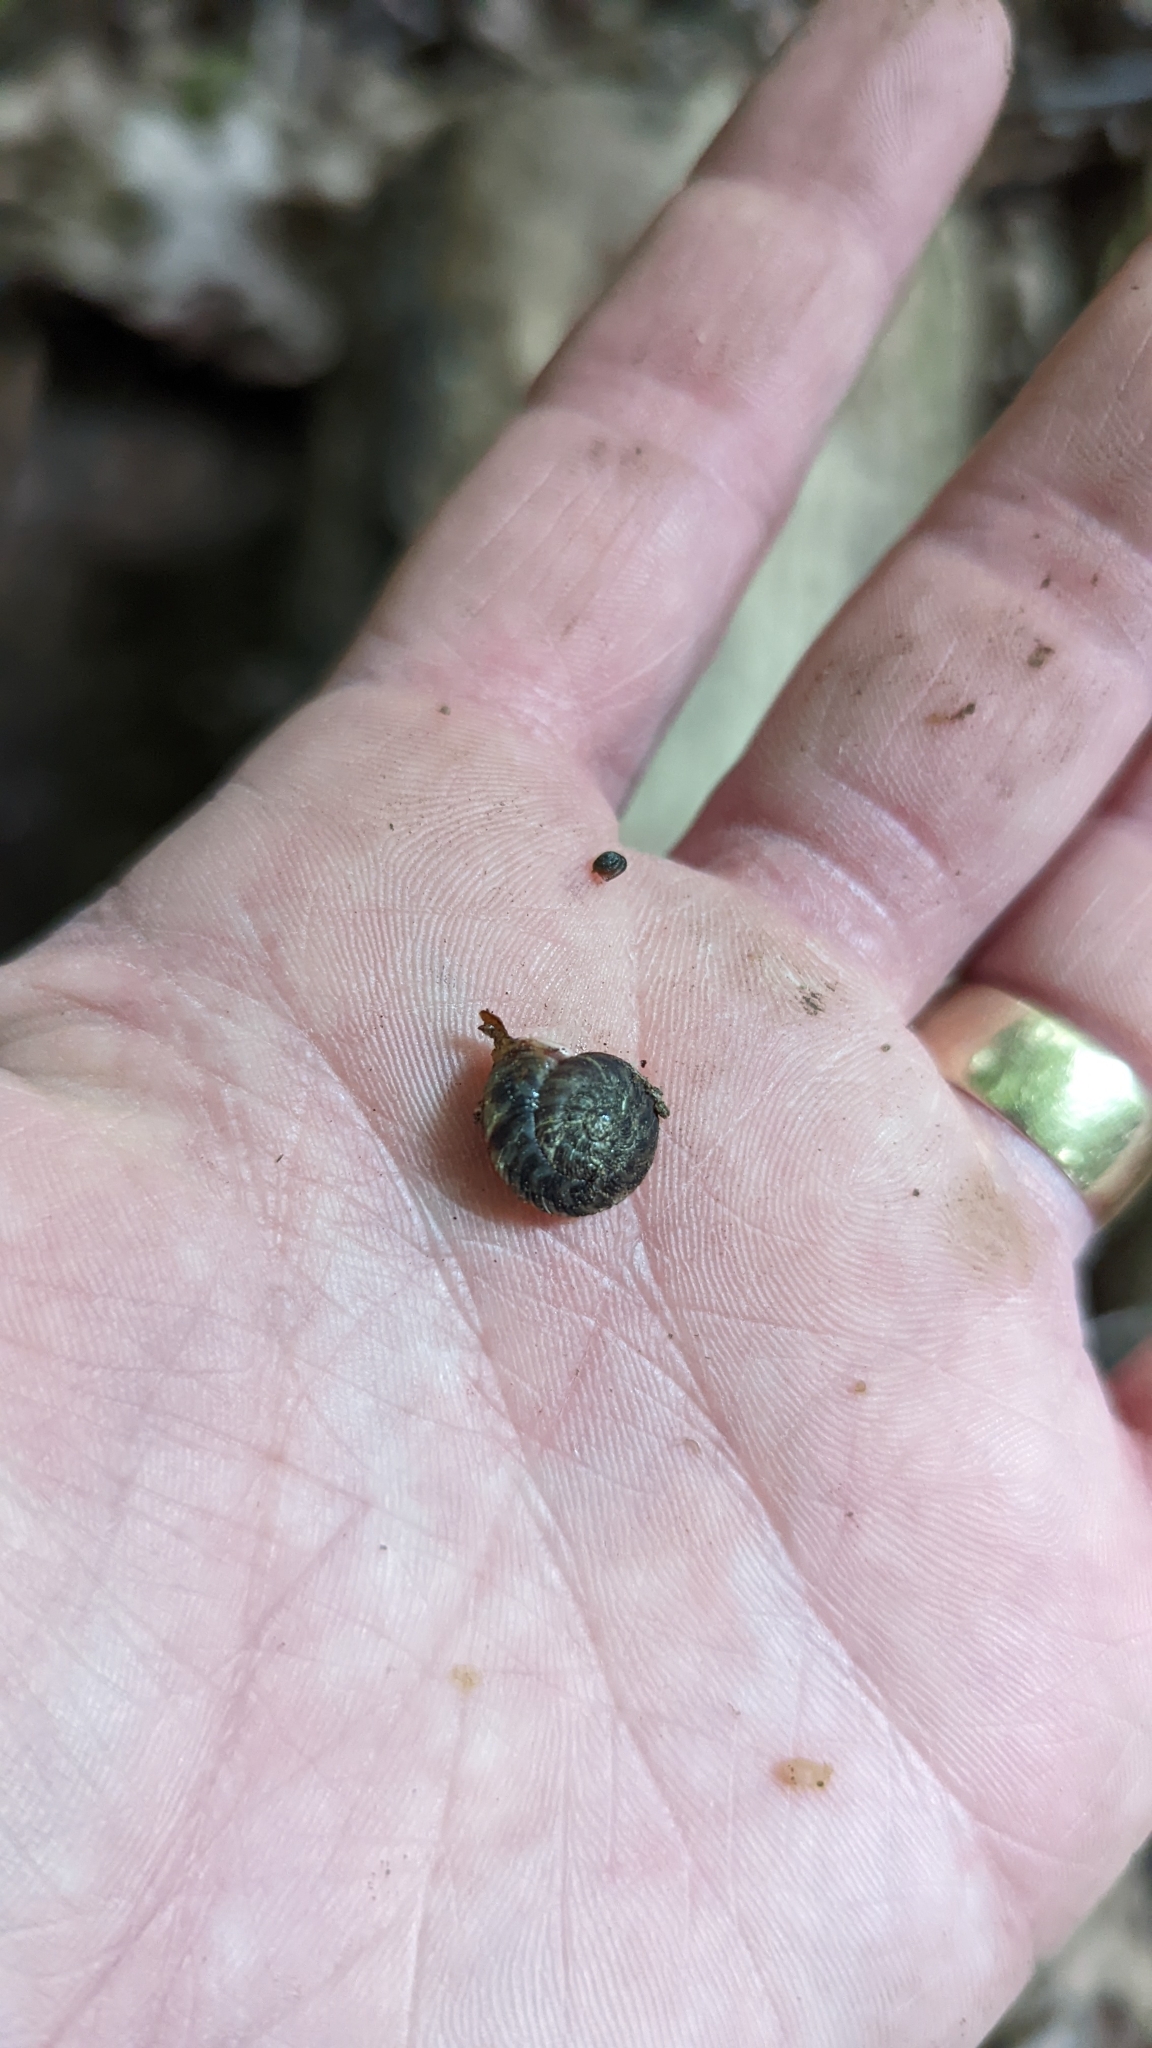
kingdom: Animalia
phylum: Mollusca
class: Gastropoda
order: Stylommatophora
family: Discidae
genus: Anguispira
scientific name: Anguispira alternata
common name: Flamed tigersnail
